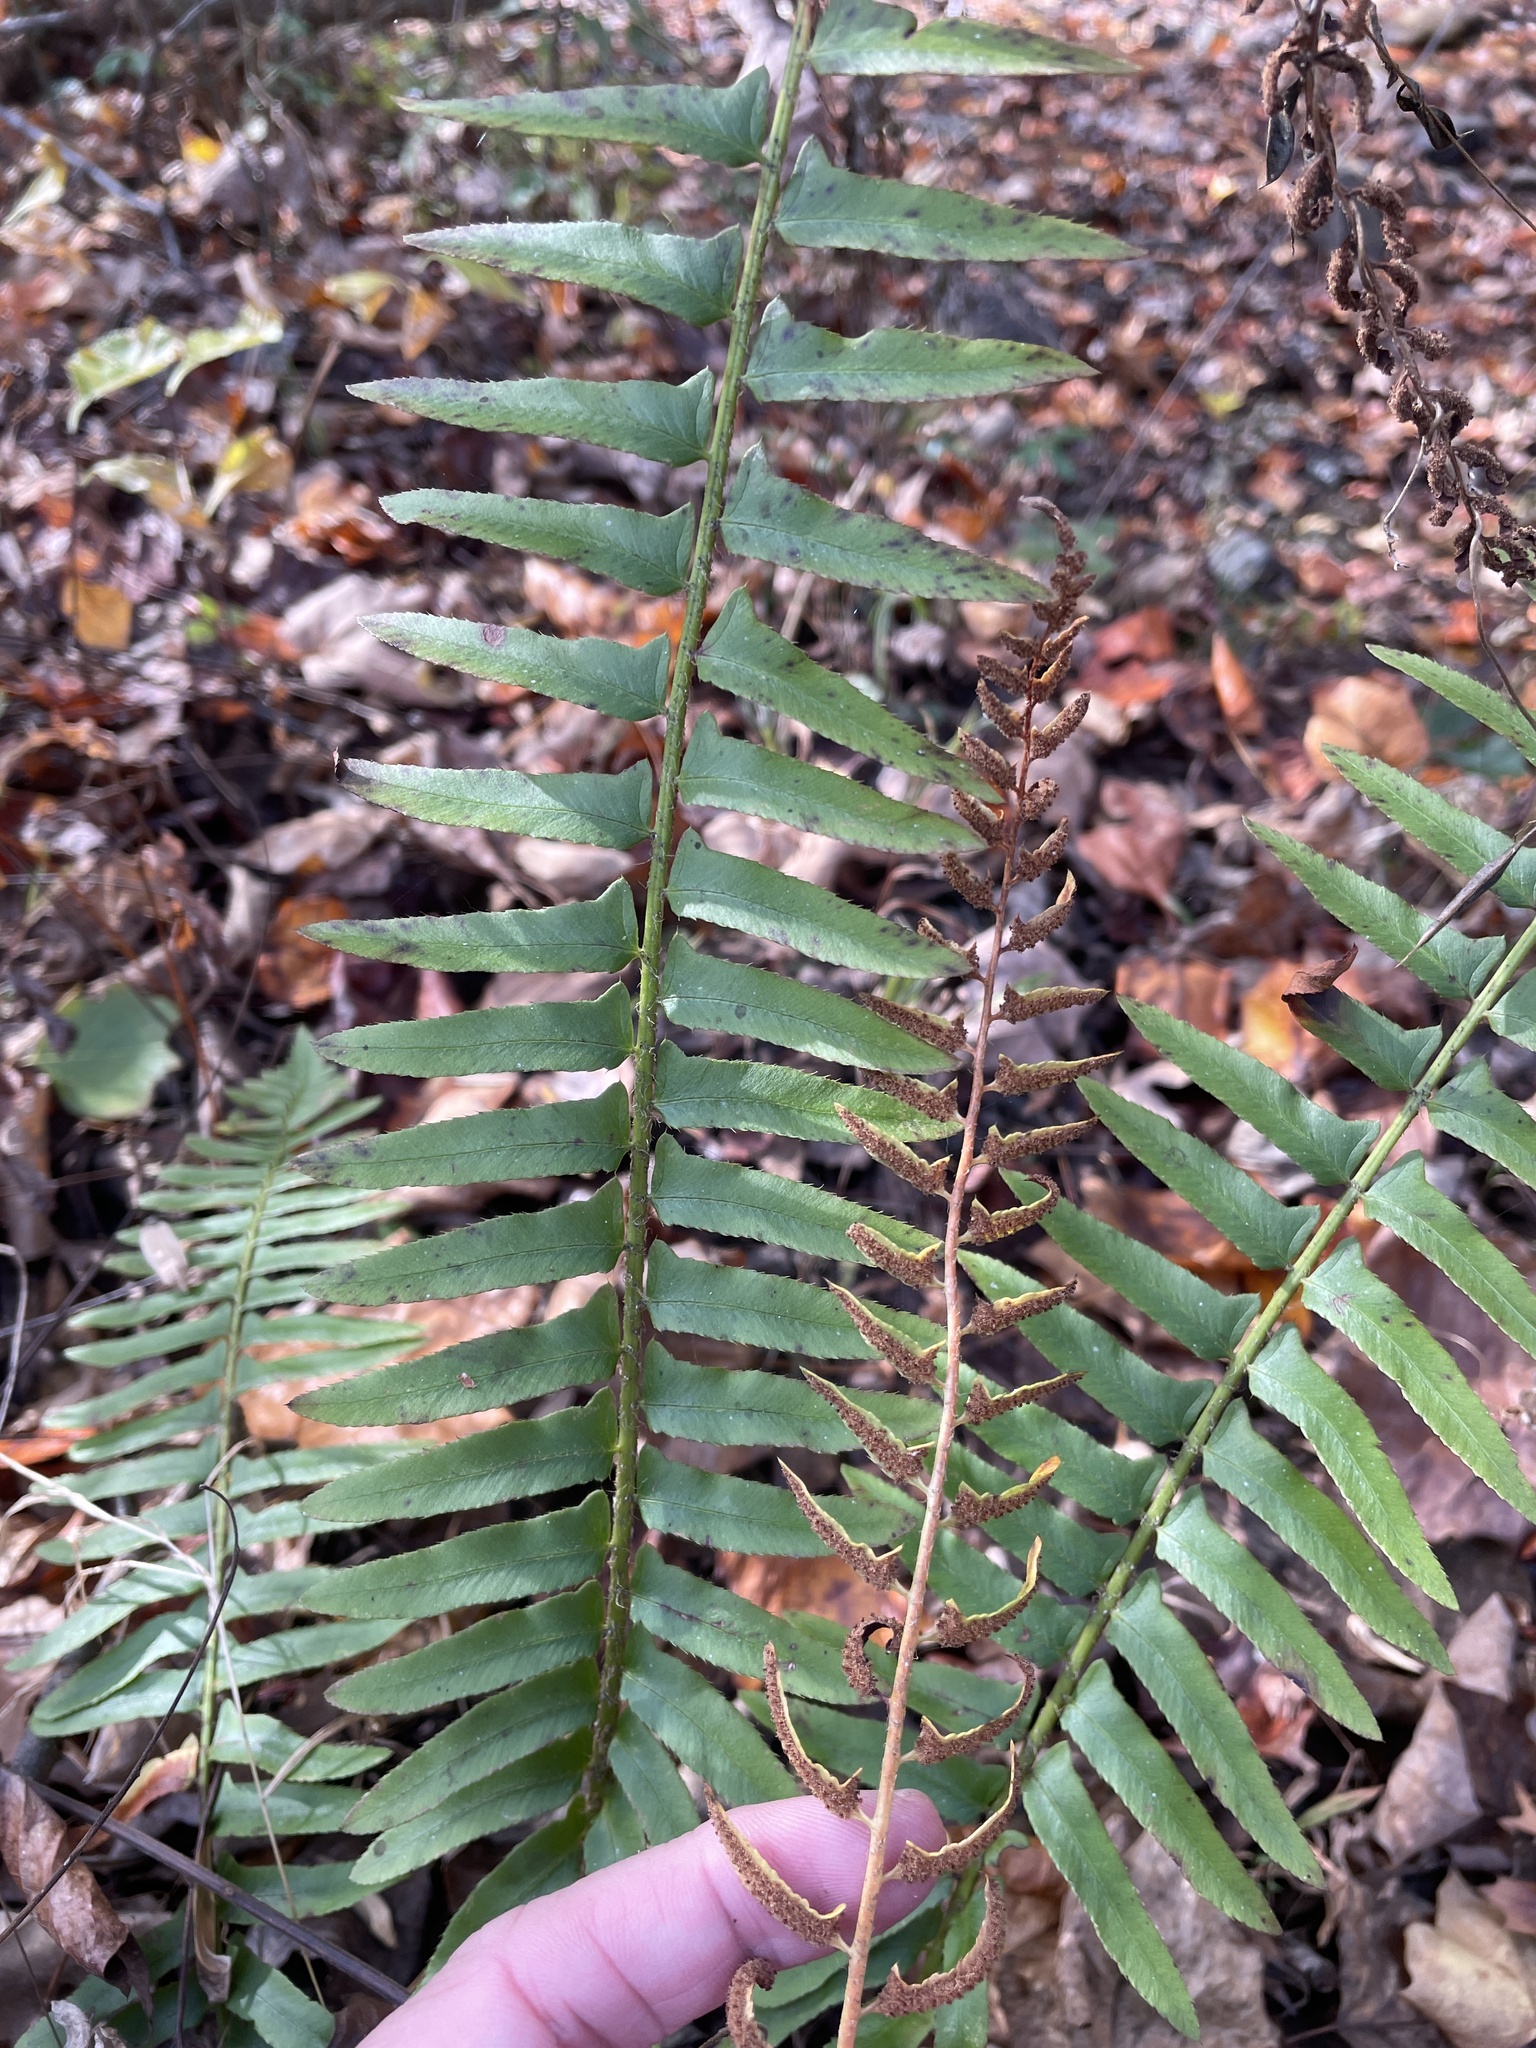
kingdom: Plantae
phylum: Tracheophyta
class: Polypodiopsida
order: Polypodiales
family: Dryopteridaceae
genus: Polystichum
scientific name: Polystichum acrostichoides
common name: Christmas fern
